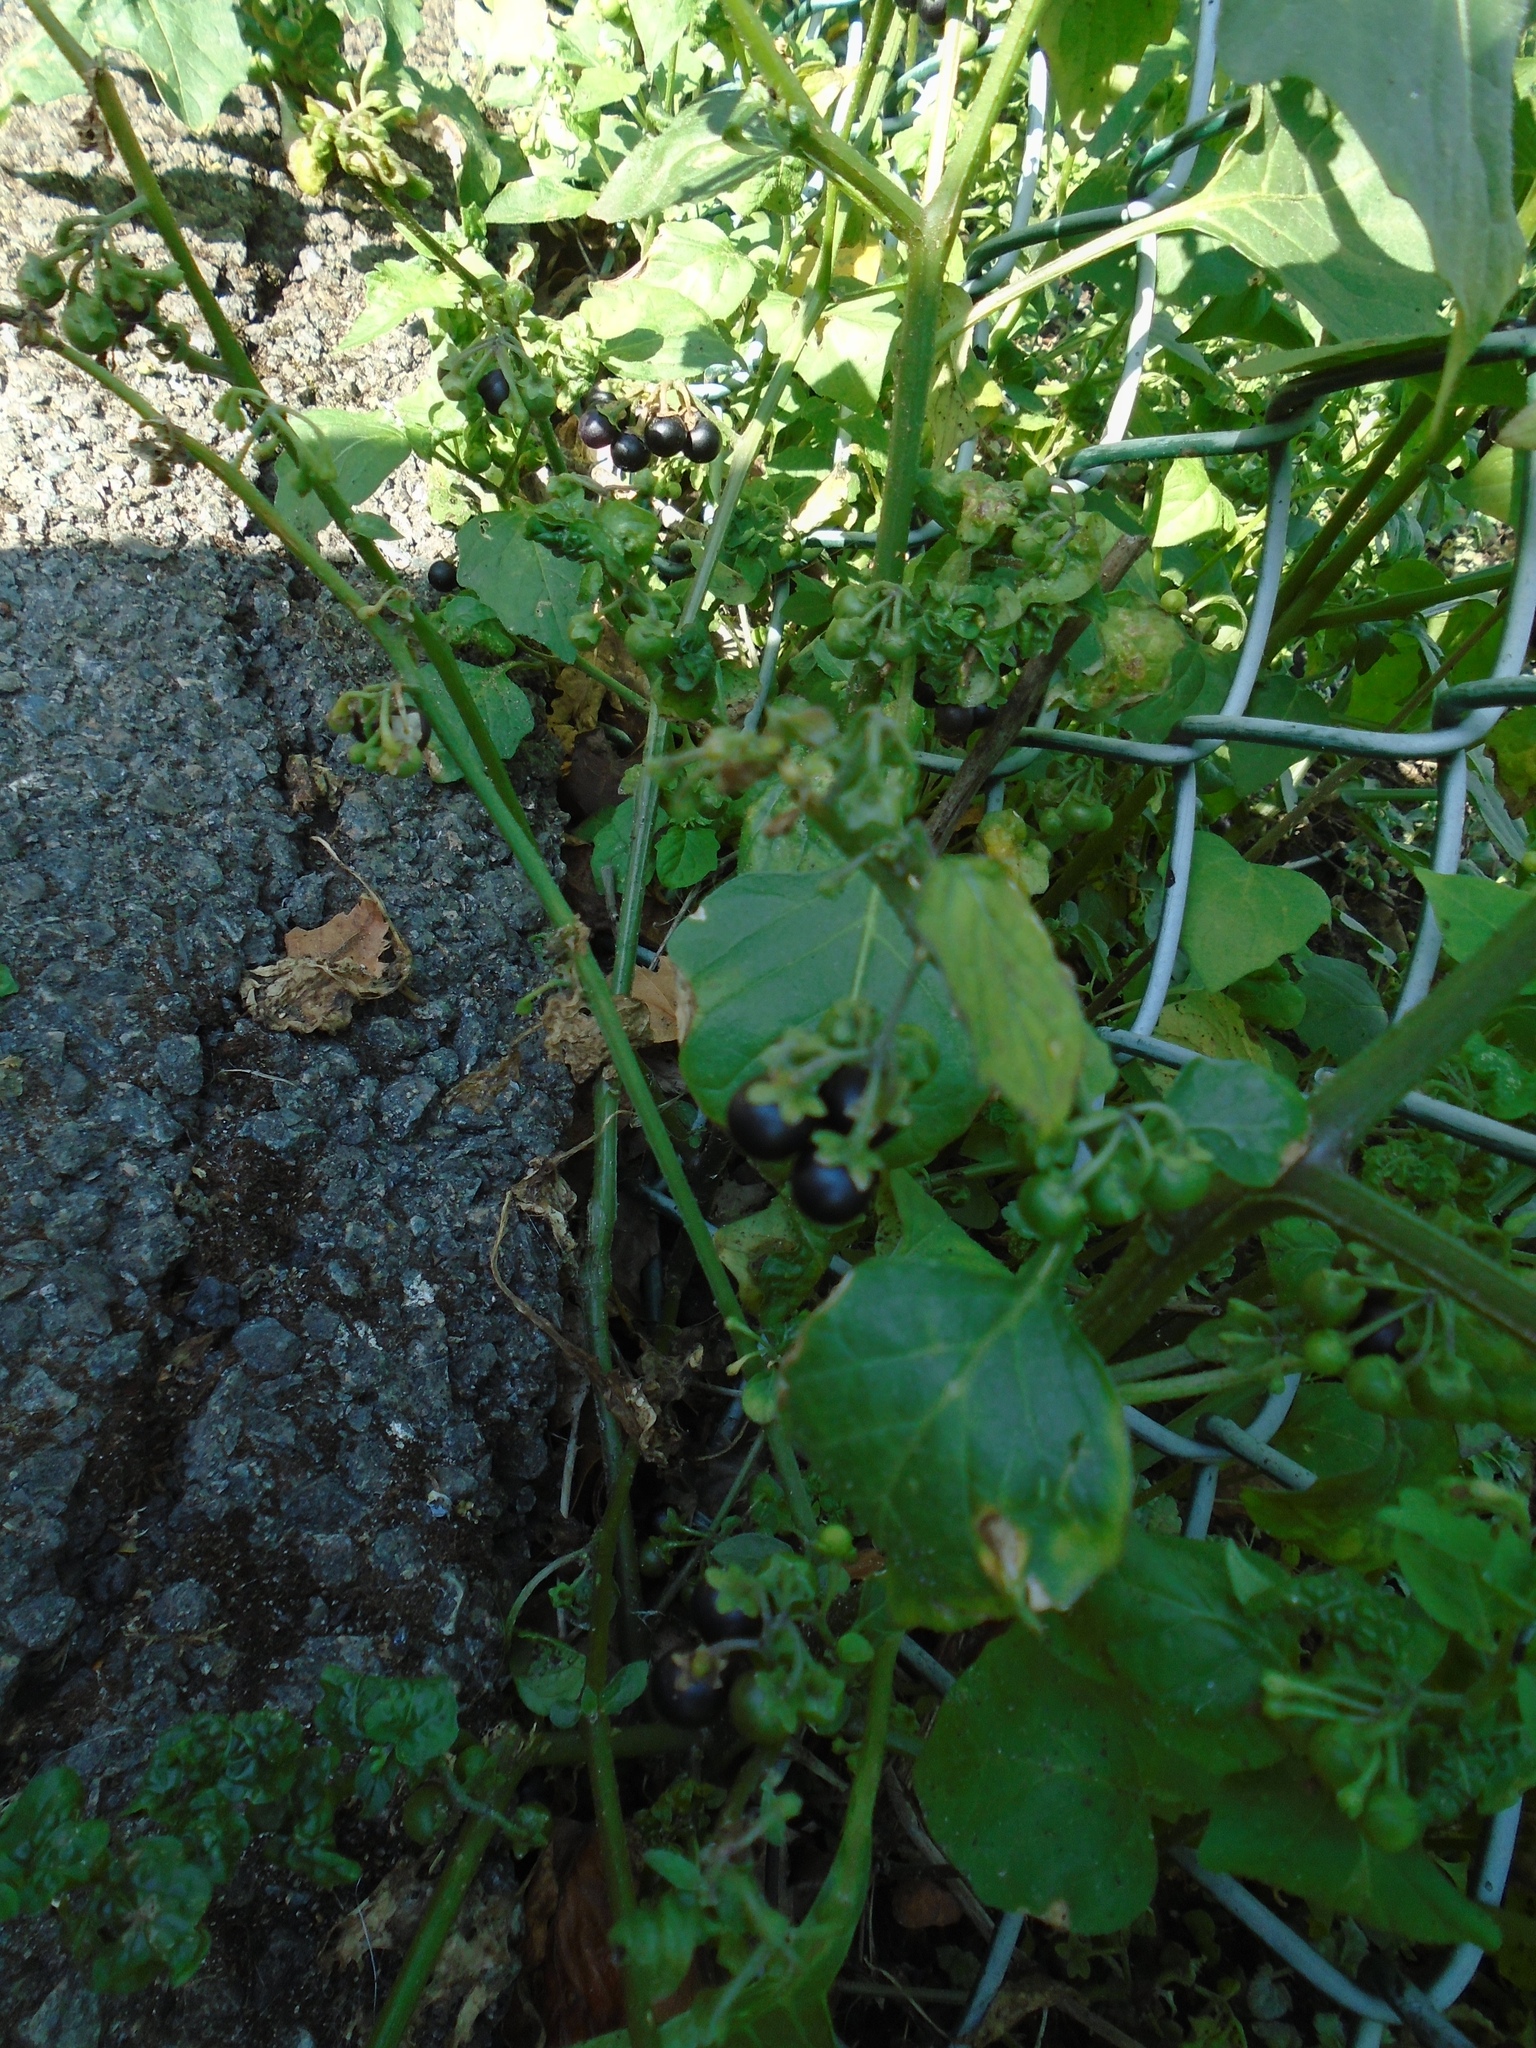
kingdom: Plantae
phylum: Tracheophyta
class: Magnoliopsida
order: Solanales
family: Solanaceae
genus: Solanum
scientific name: Solanum nigrum
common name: Black nightshade
